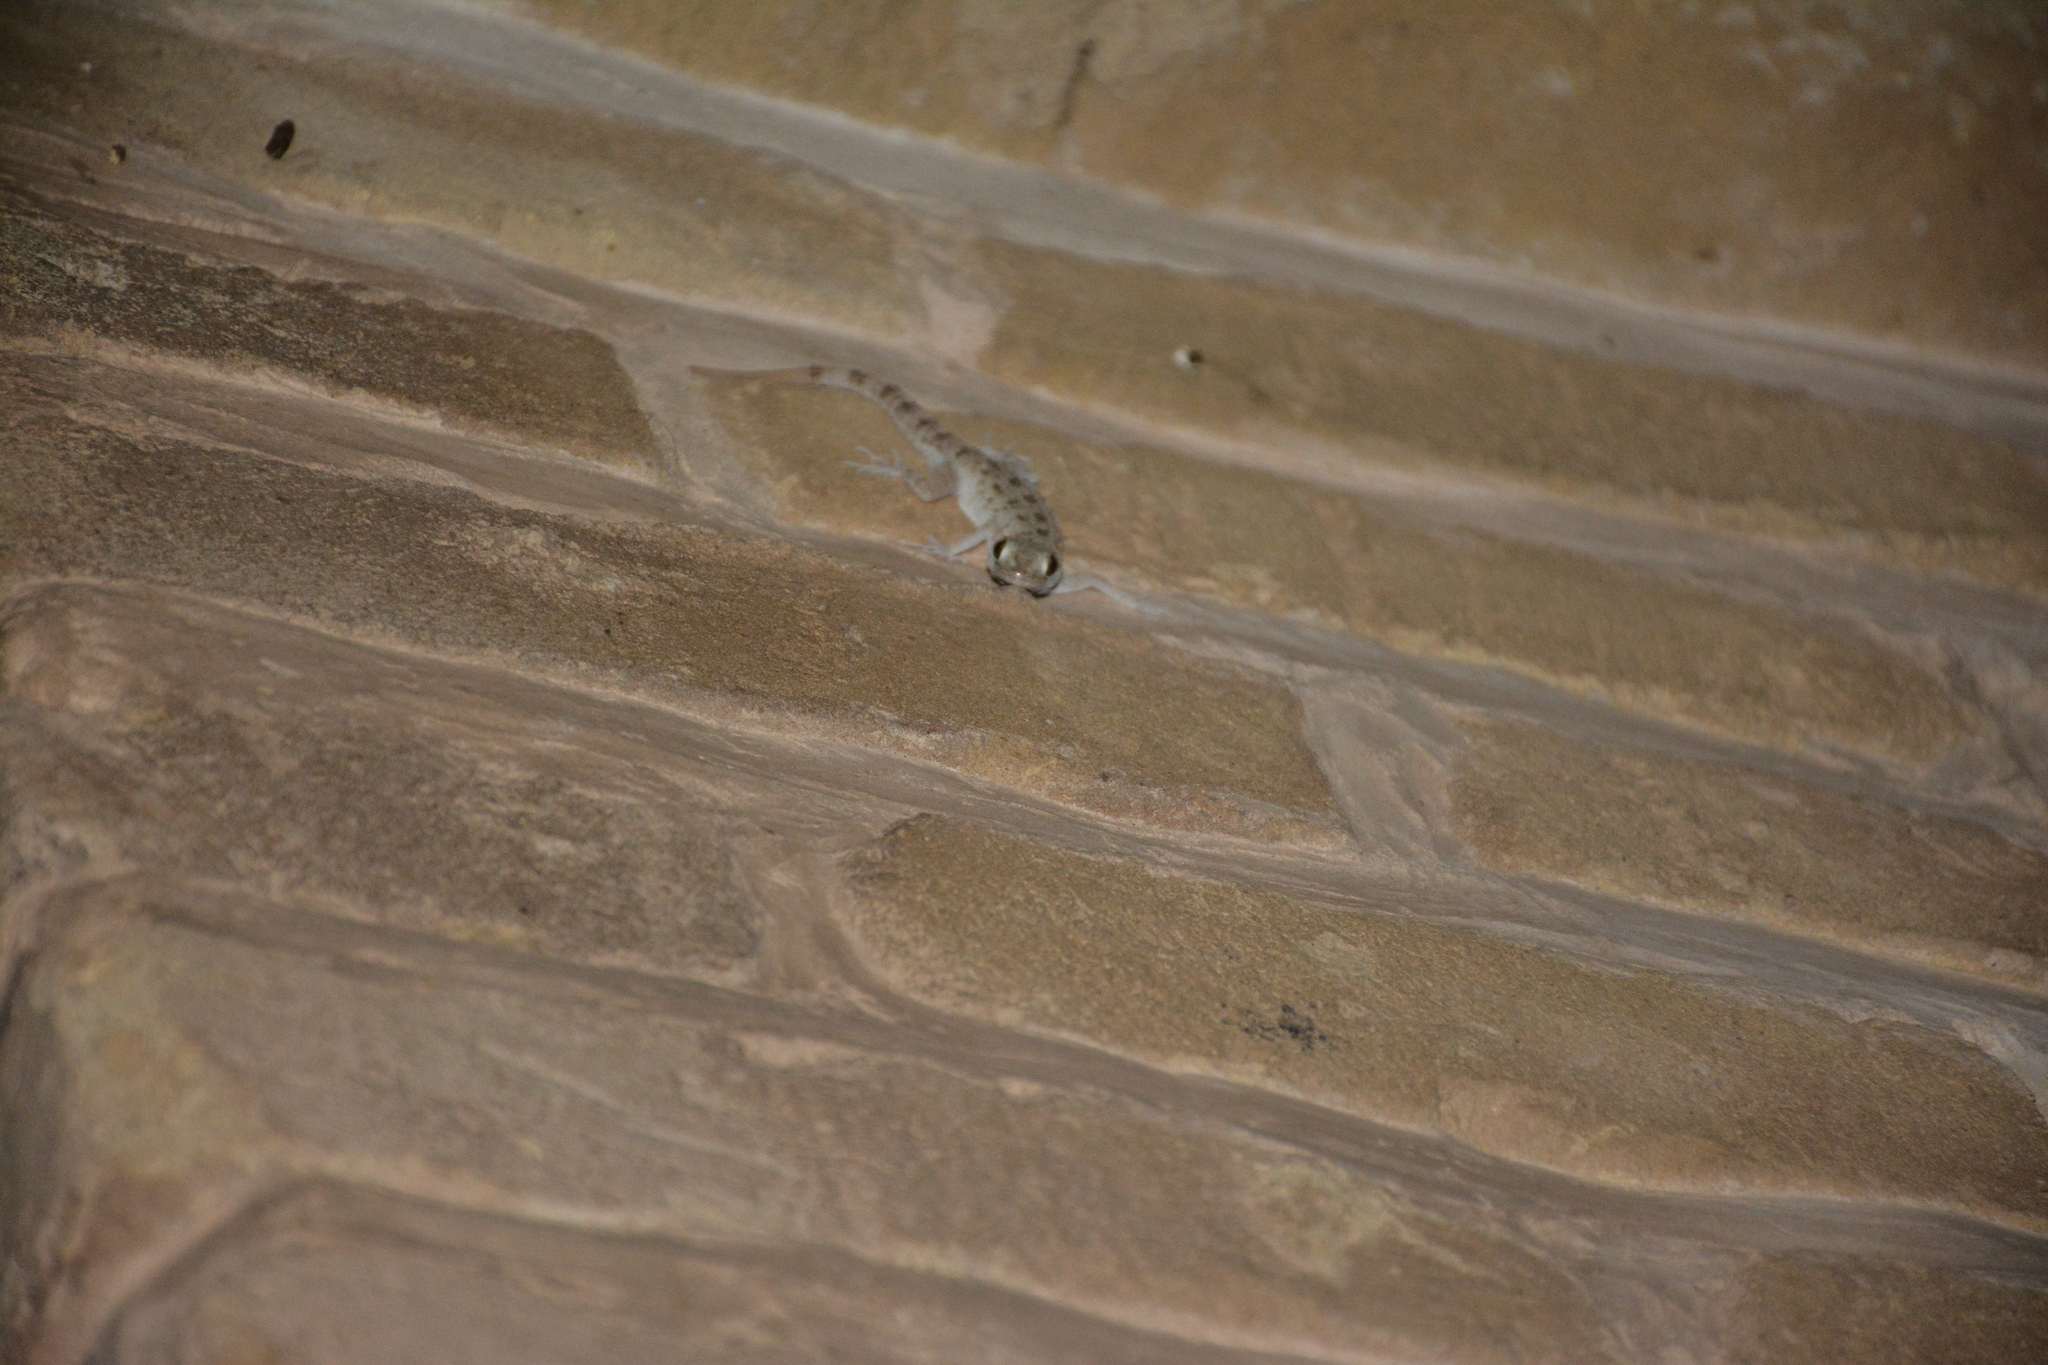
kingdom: Animalia
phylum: Chordata
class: Squamata
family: Gekkonidae
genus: Cyrtopodion
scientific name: Cyrtopodion scabrum
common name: Rough-tailed gecko
